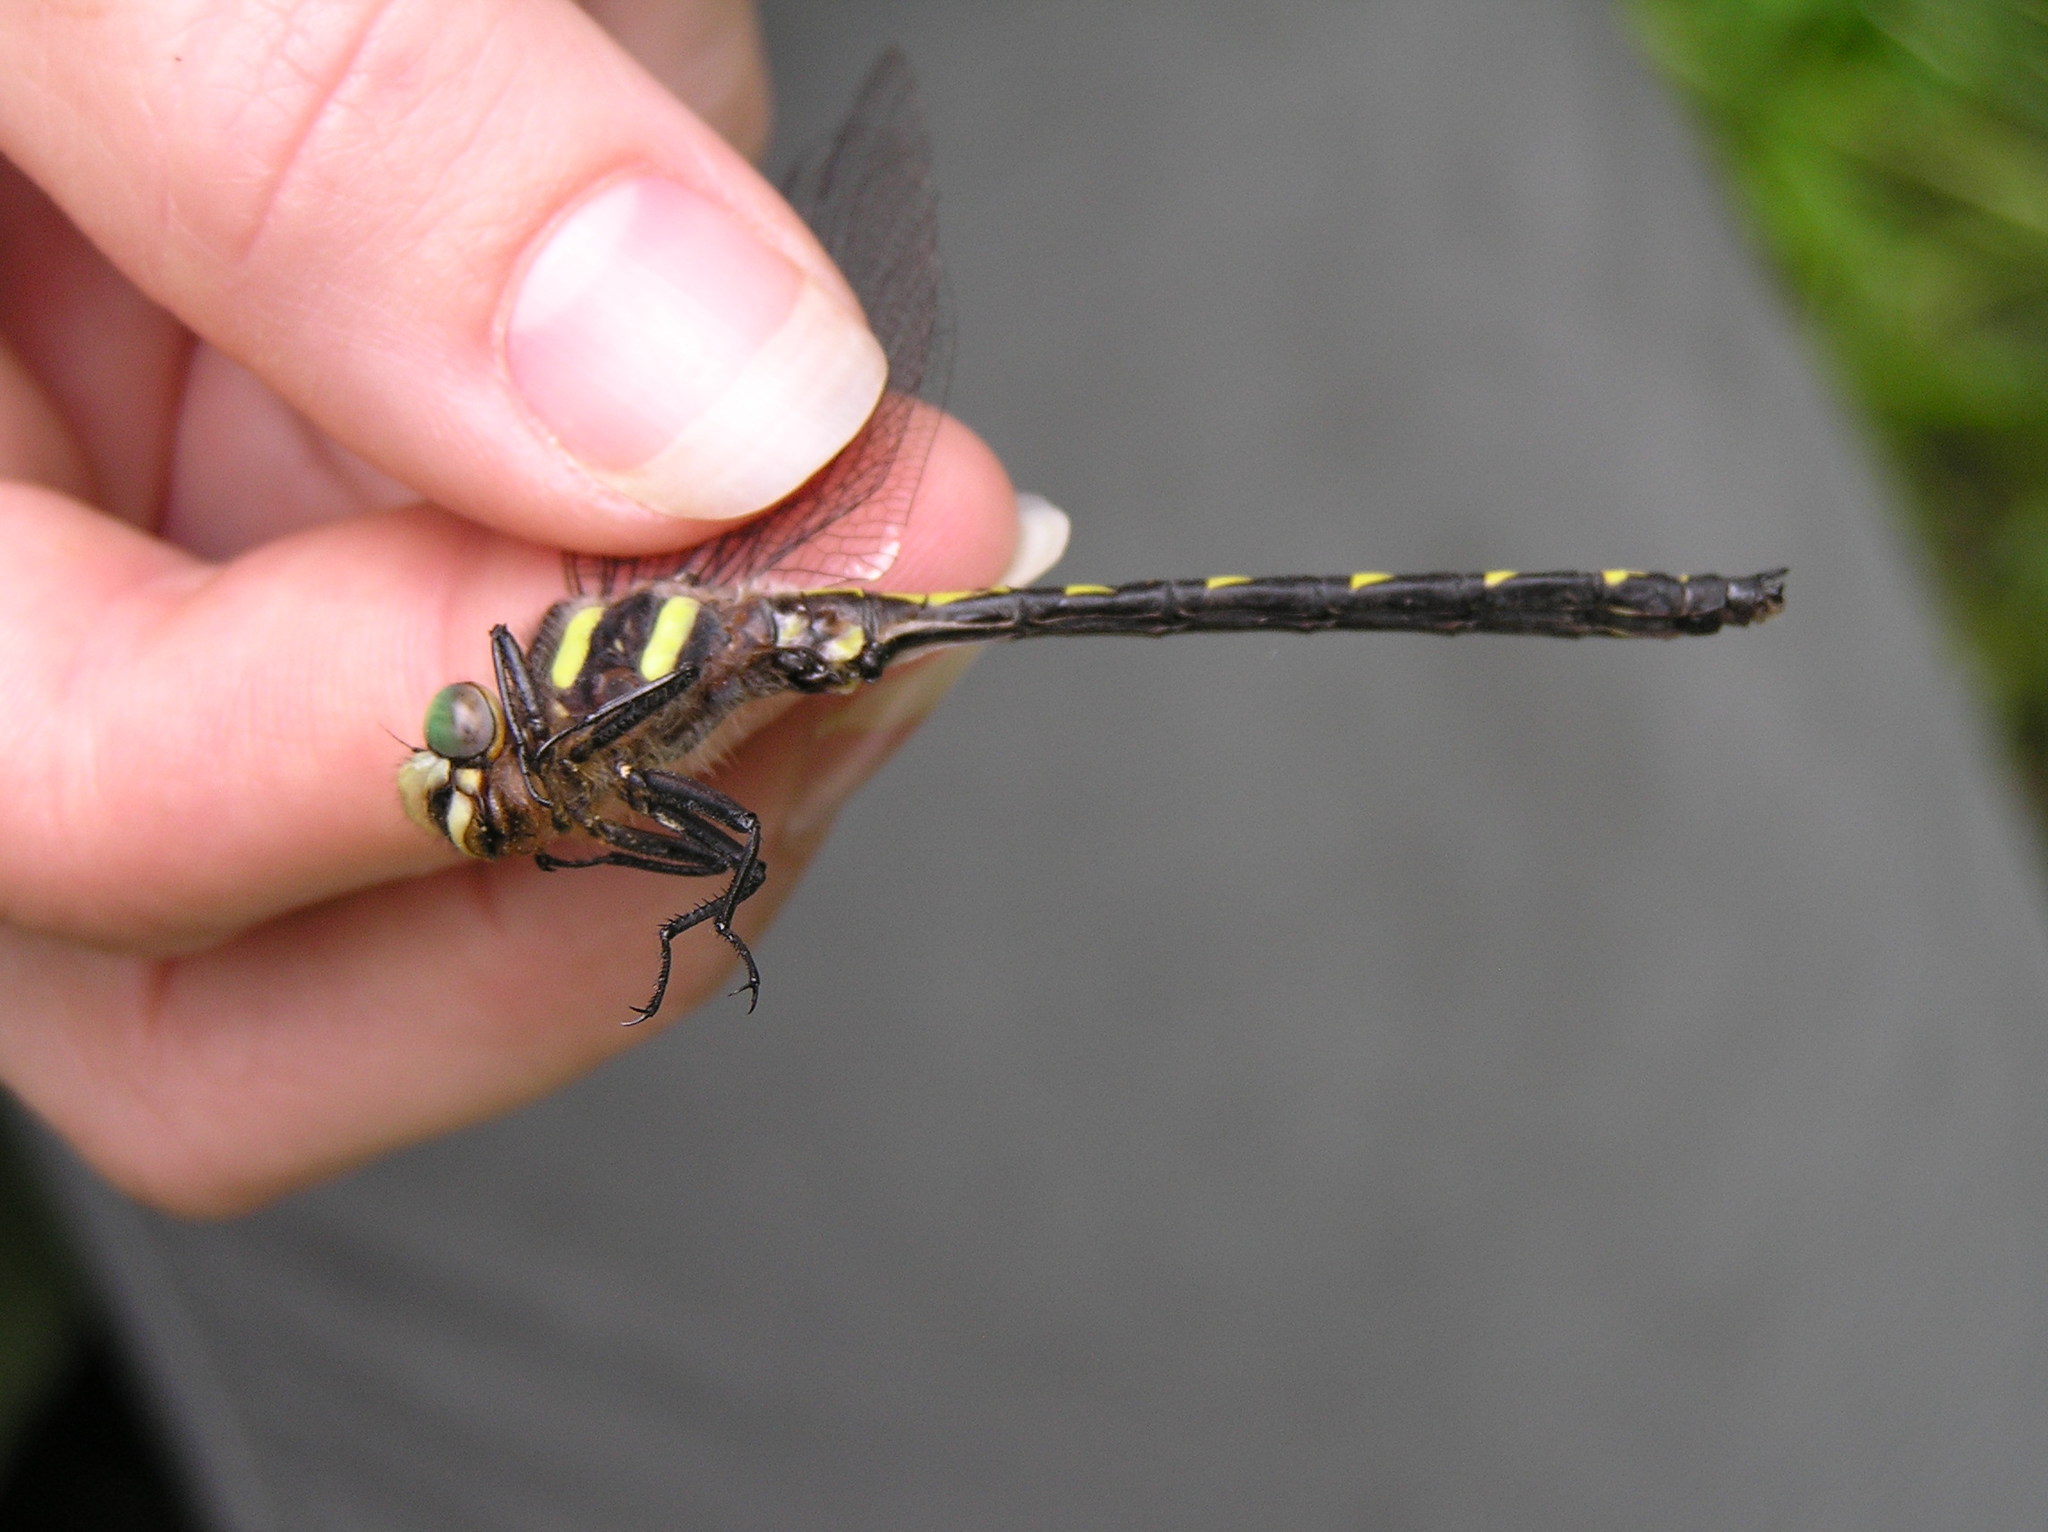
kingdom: Animalia
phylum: Arthropoda
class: Insecta
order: Odonata
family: Cordulegastridae
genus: Cordulegaster
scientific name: Cordulegaster diastatops
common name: Delta-spotted spiketail
